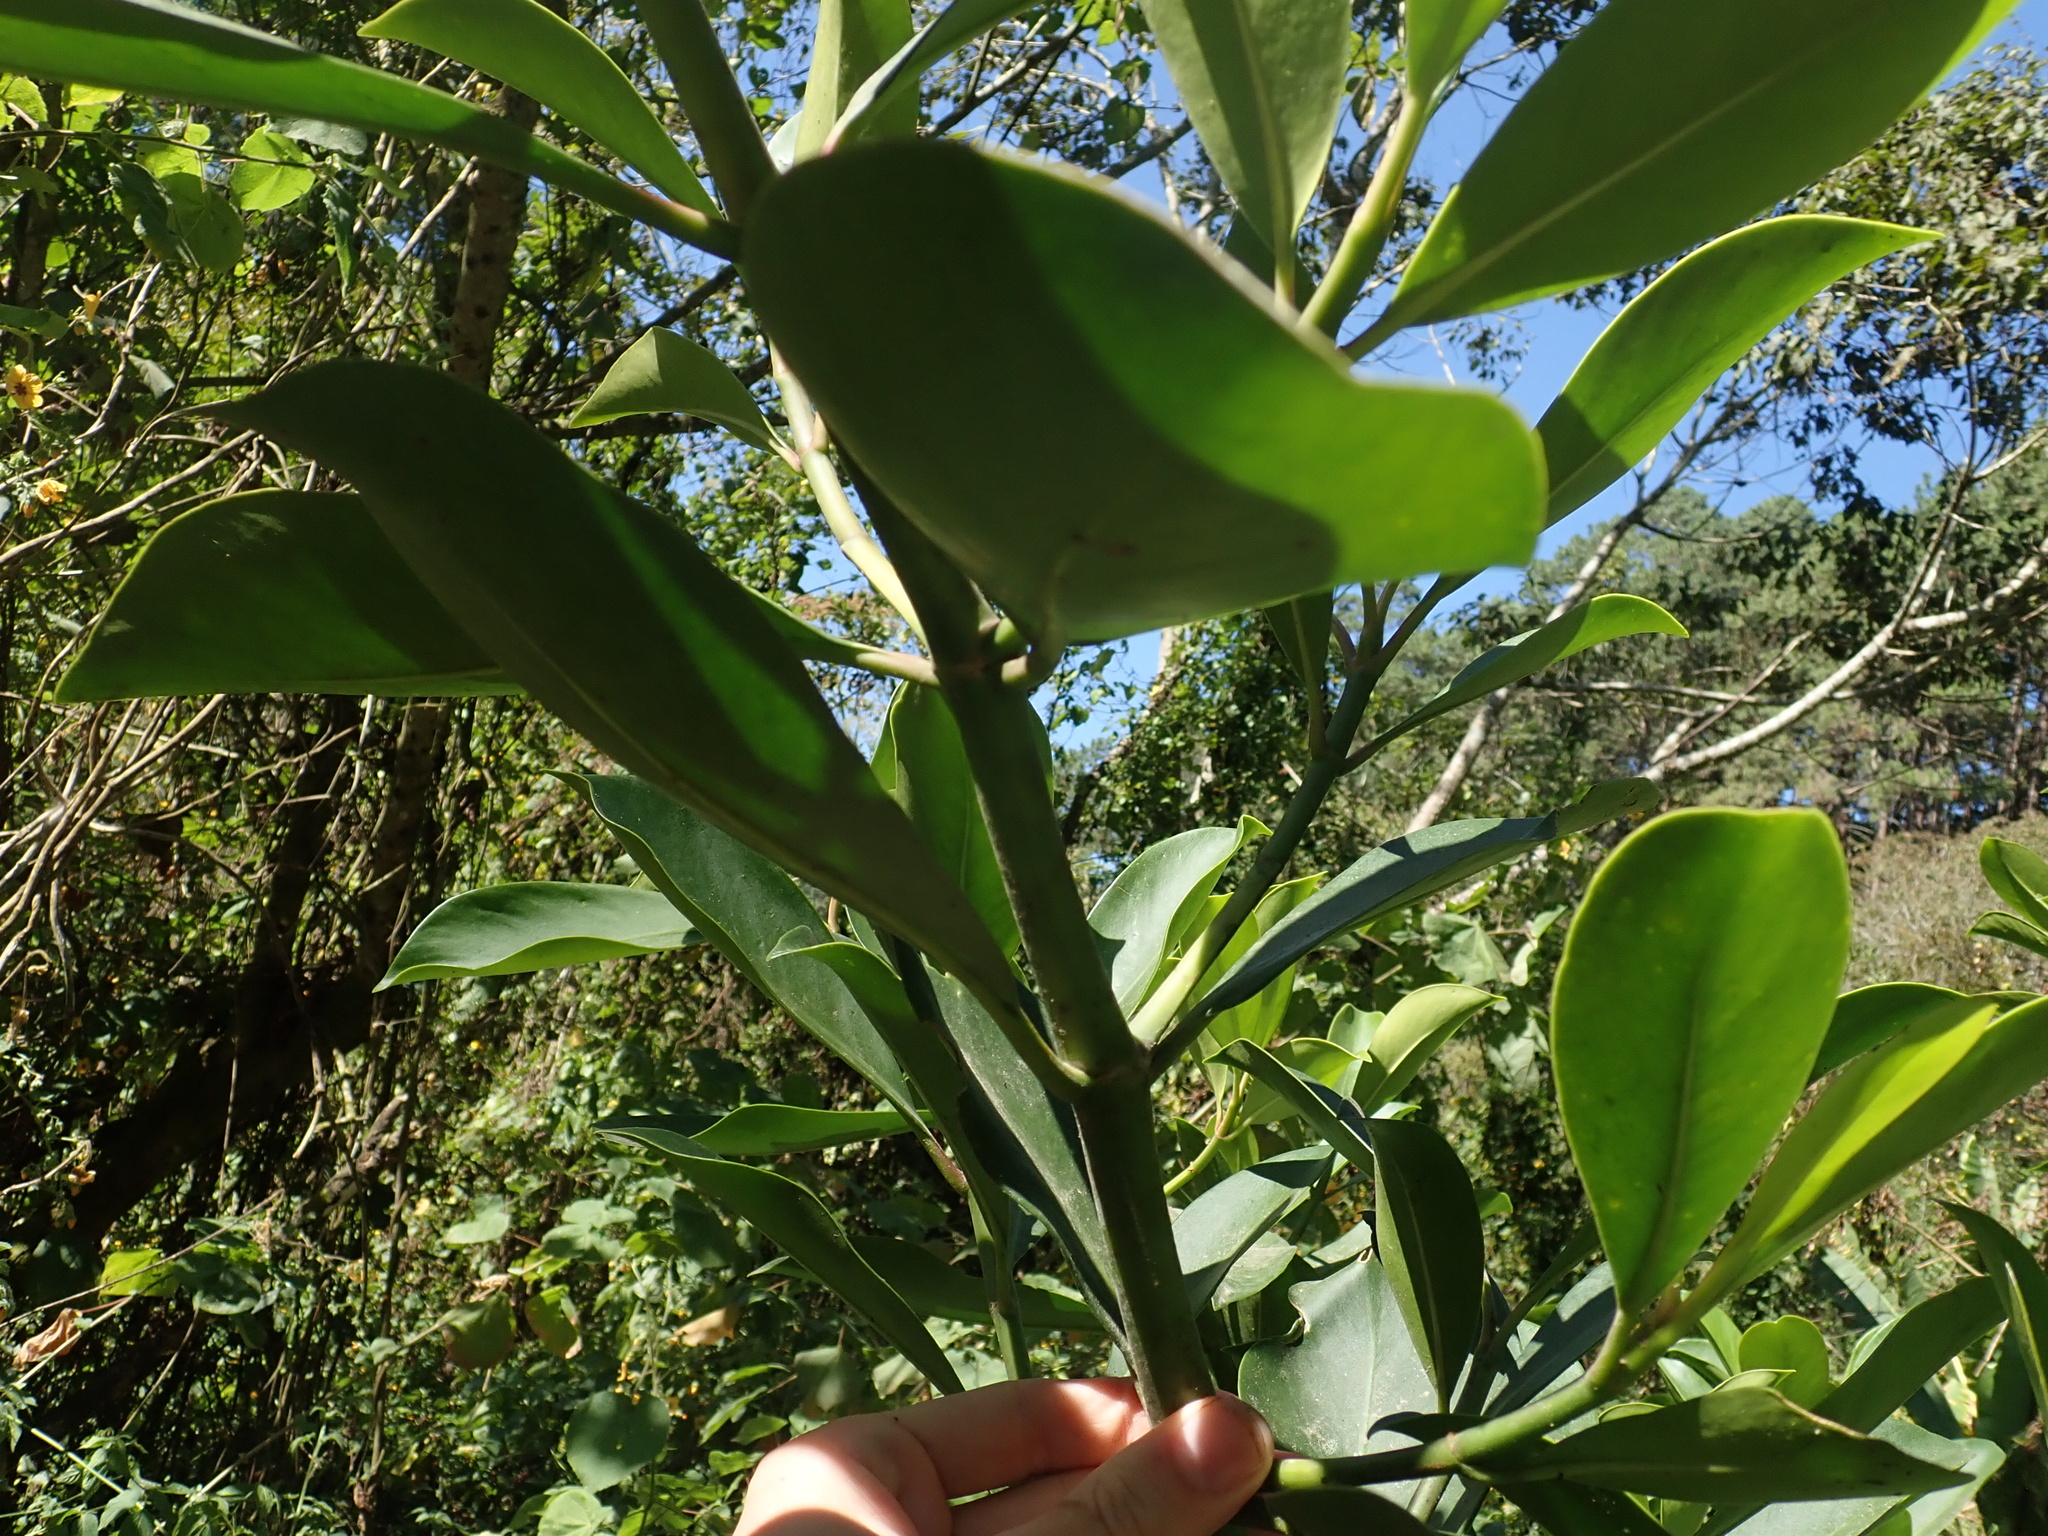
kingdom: Plantae
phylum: Tracheophyta
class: Magnoliopsida
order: Malpighiales
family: Clusiaceae
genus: Clusia
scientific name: Clusia guatemalensis
